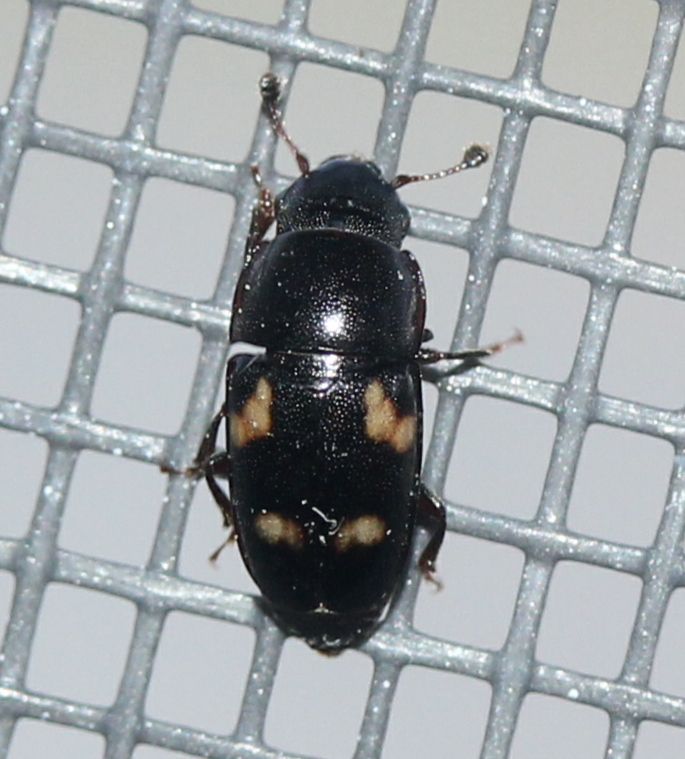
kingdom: Animalia
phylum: Arthropoda
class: Insecta
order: Coleoptera
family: Nitidulidae
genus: Glischrochilus
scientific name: Glischrochilus quadrisignatus
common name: Picnic beetle
